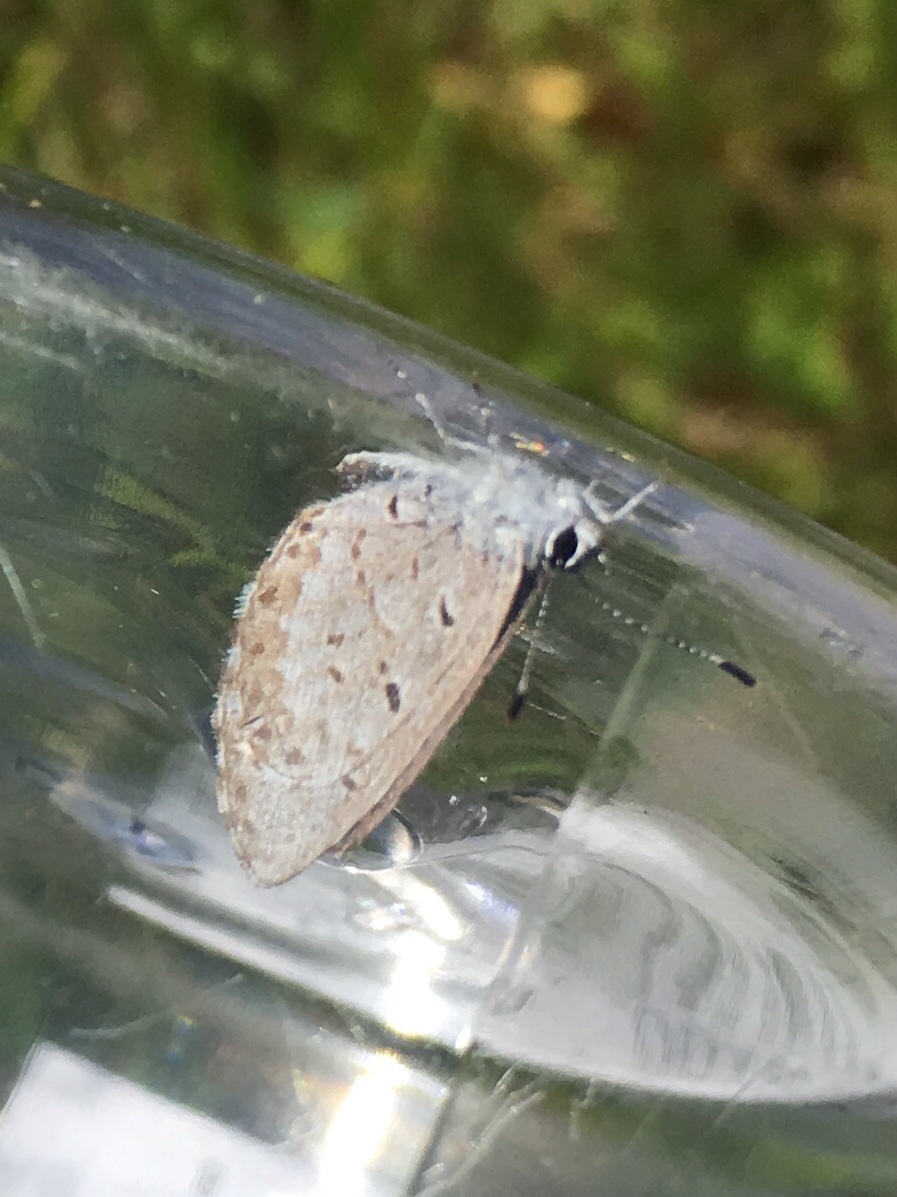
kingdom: Animalia
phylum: Arthropoda
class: Insecta
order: Lepidoptera
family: Lycaenidae
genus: Celastrina
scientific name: Celastrina lucia
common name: Lucia azure
